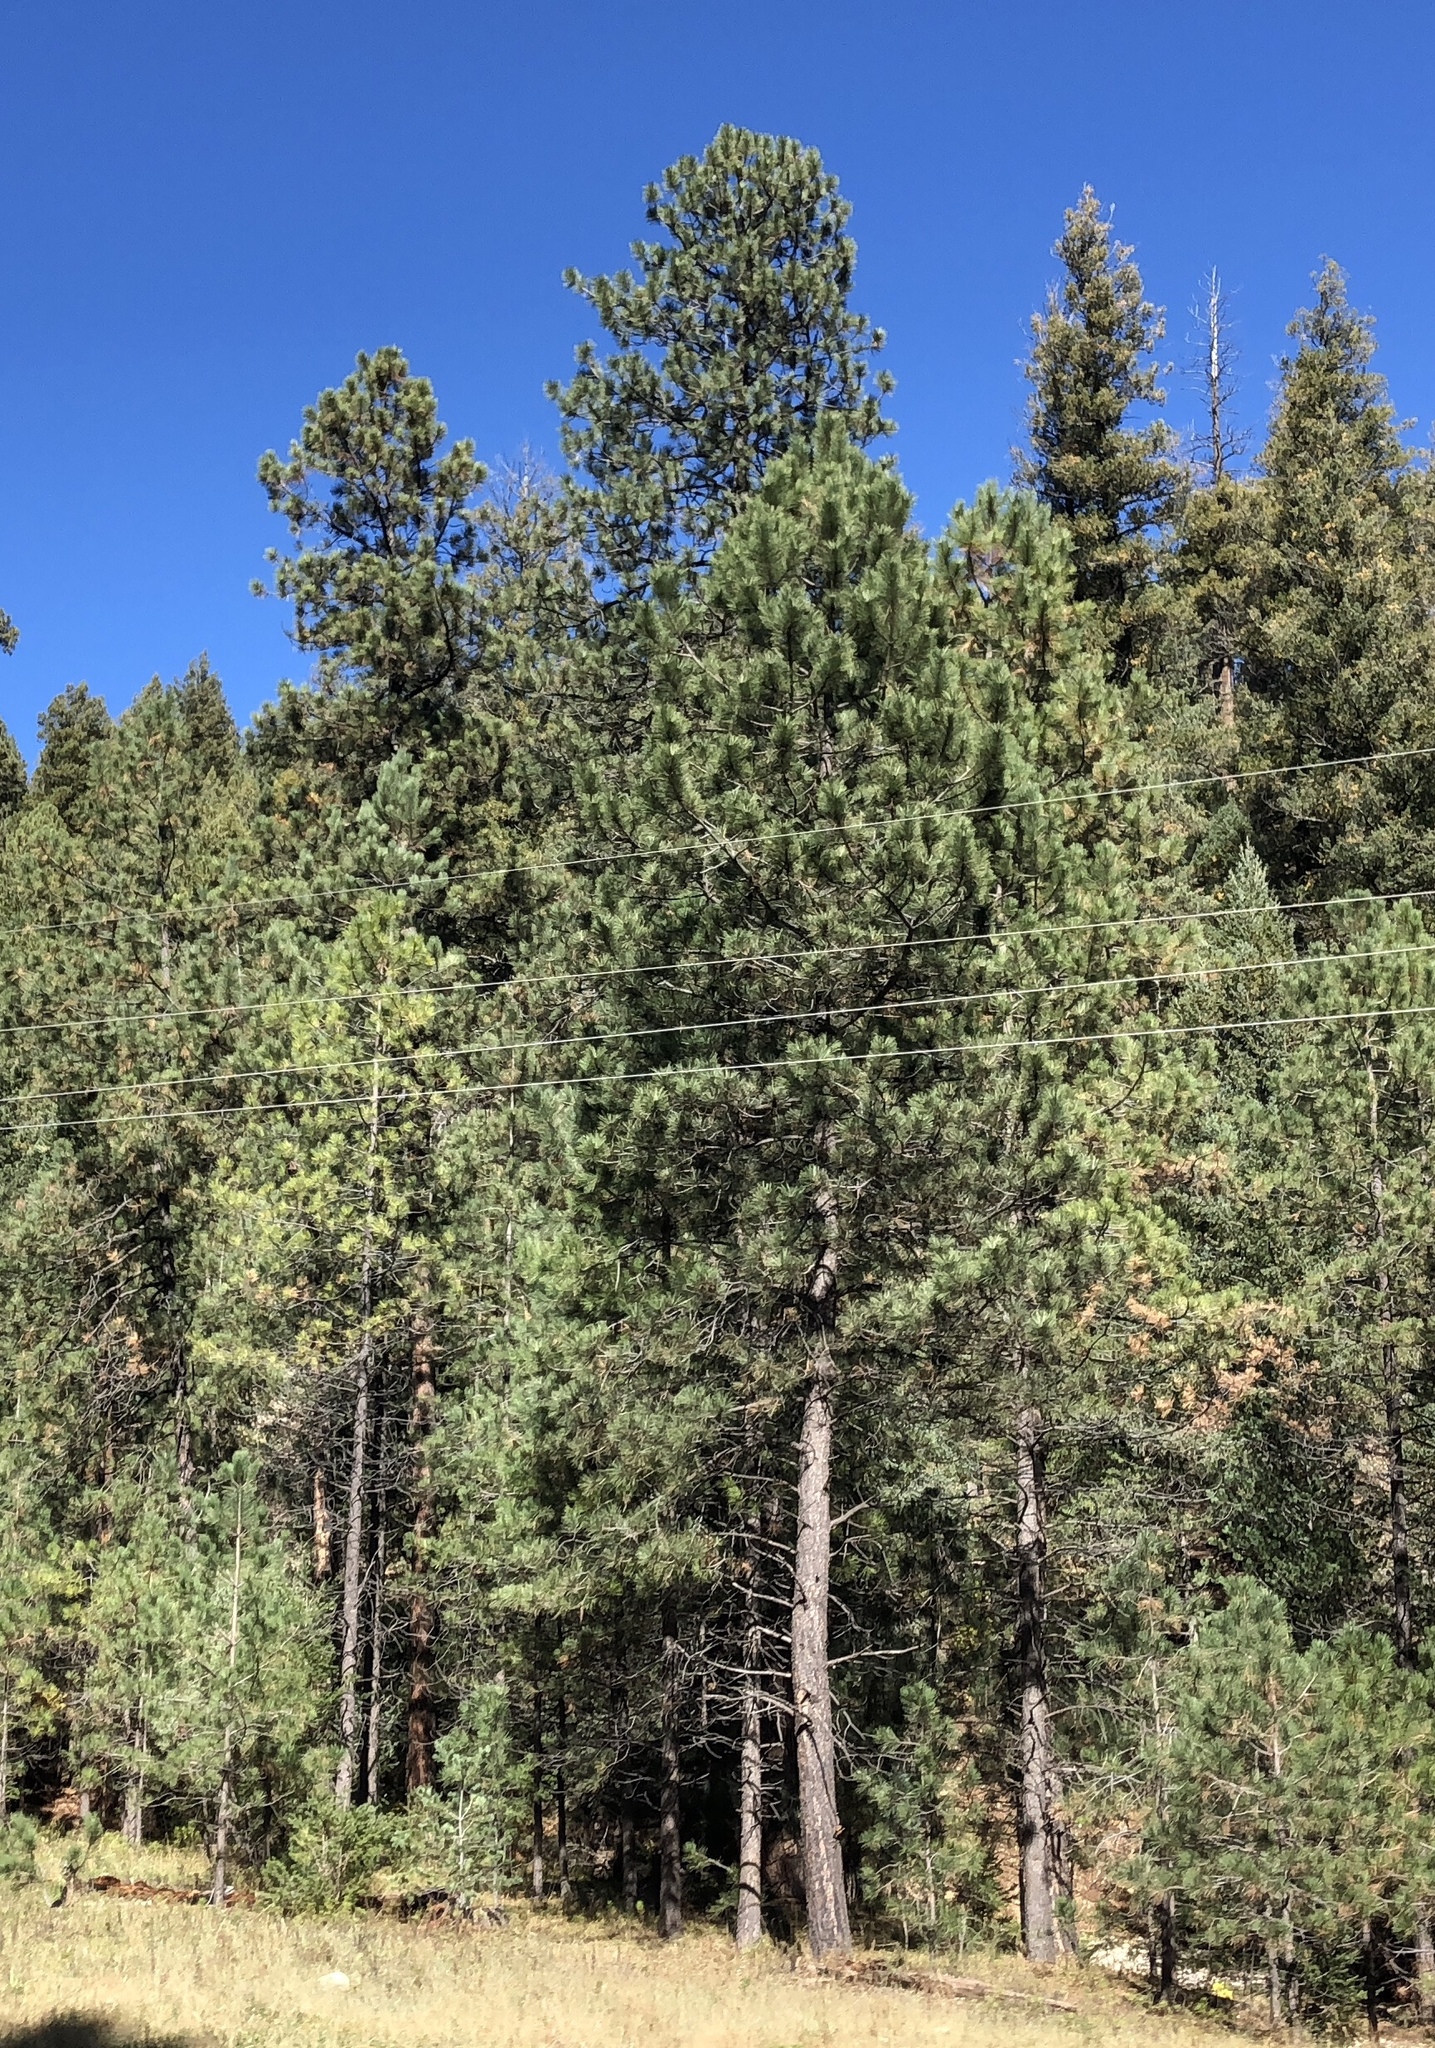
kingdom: Plantae
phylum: Tracheophyta
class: Pinopsida
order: Pinales
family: Pinaceae
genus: Pinus
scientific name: Pinus ponderosa
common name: Western yellow-pine
